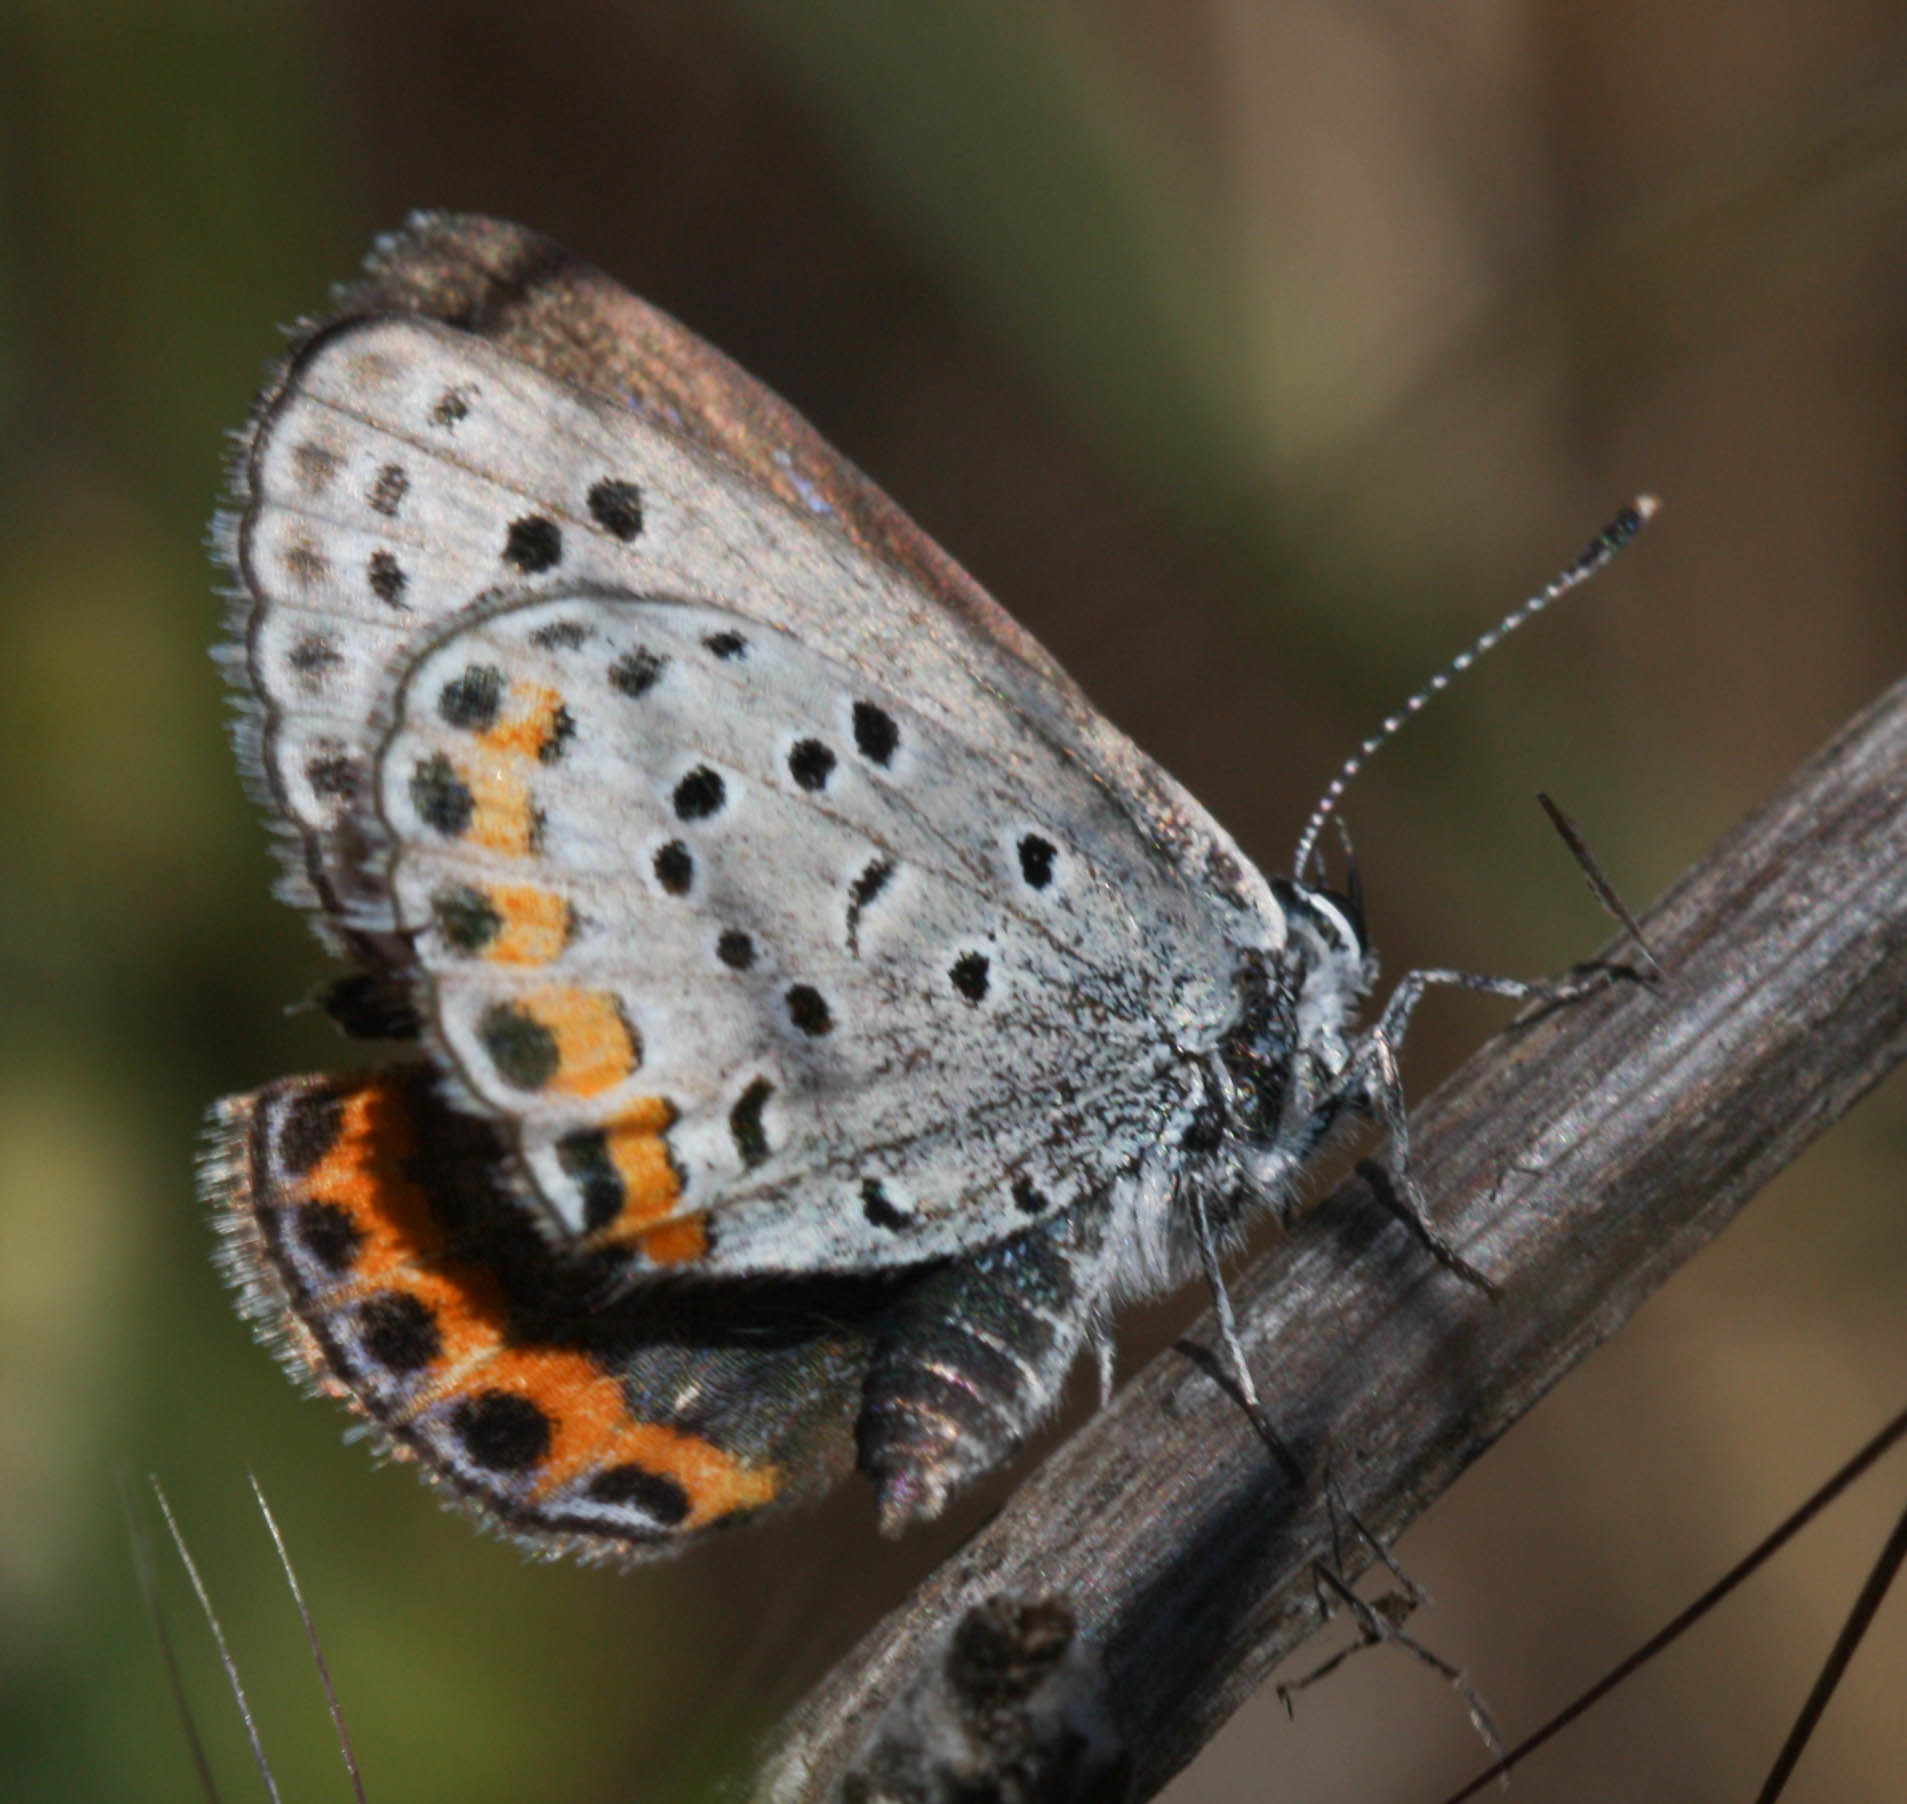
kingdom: Animalia
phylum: Arthropoda
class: Insecta
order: Lepidoptera
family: Lycaenidae
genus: Icaricia
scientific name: Icaricia acmon
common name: Acmon blue
